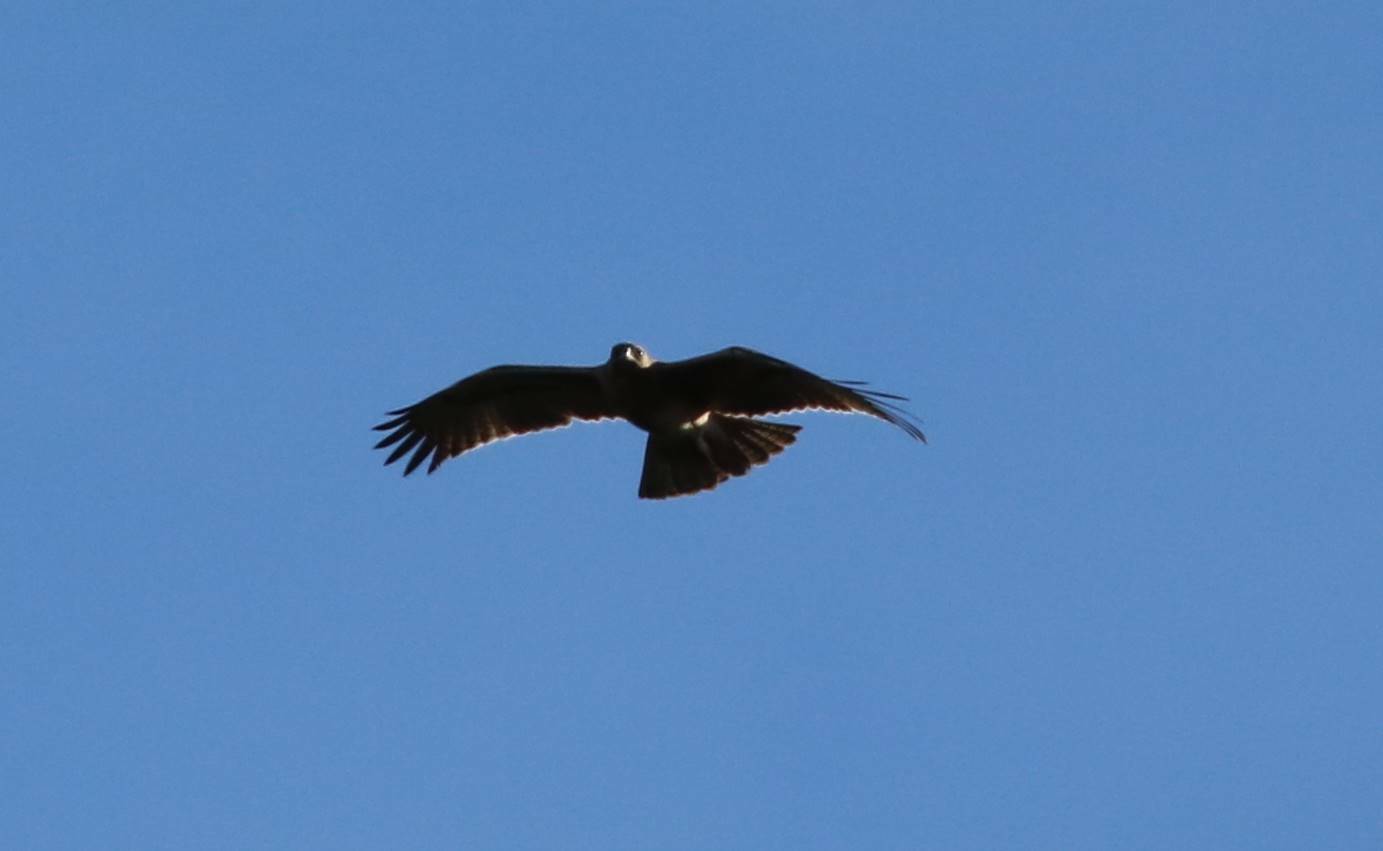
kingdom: Animalia
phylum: Chordata
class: Aves
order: Accipitriformes
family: Accipitridae
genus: Aquila
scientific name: Aquila fasciata
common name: Bonelli's eagle
